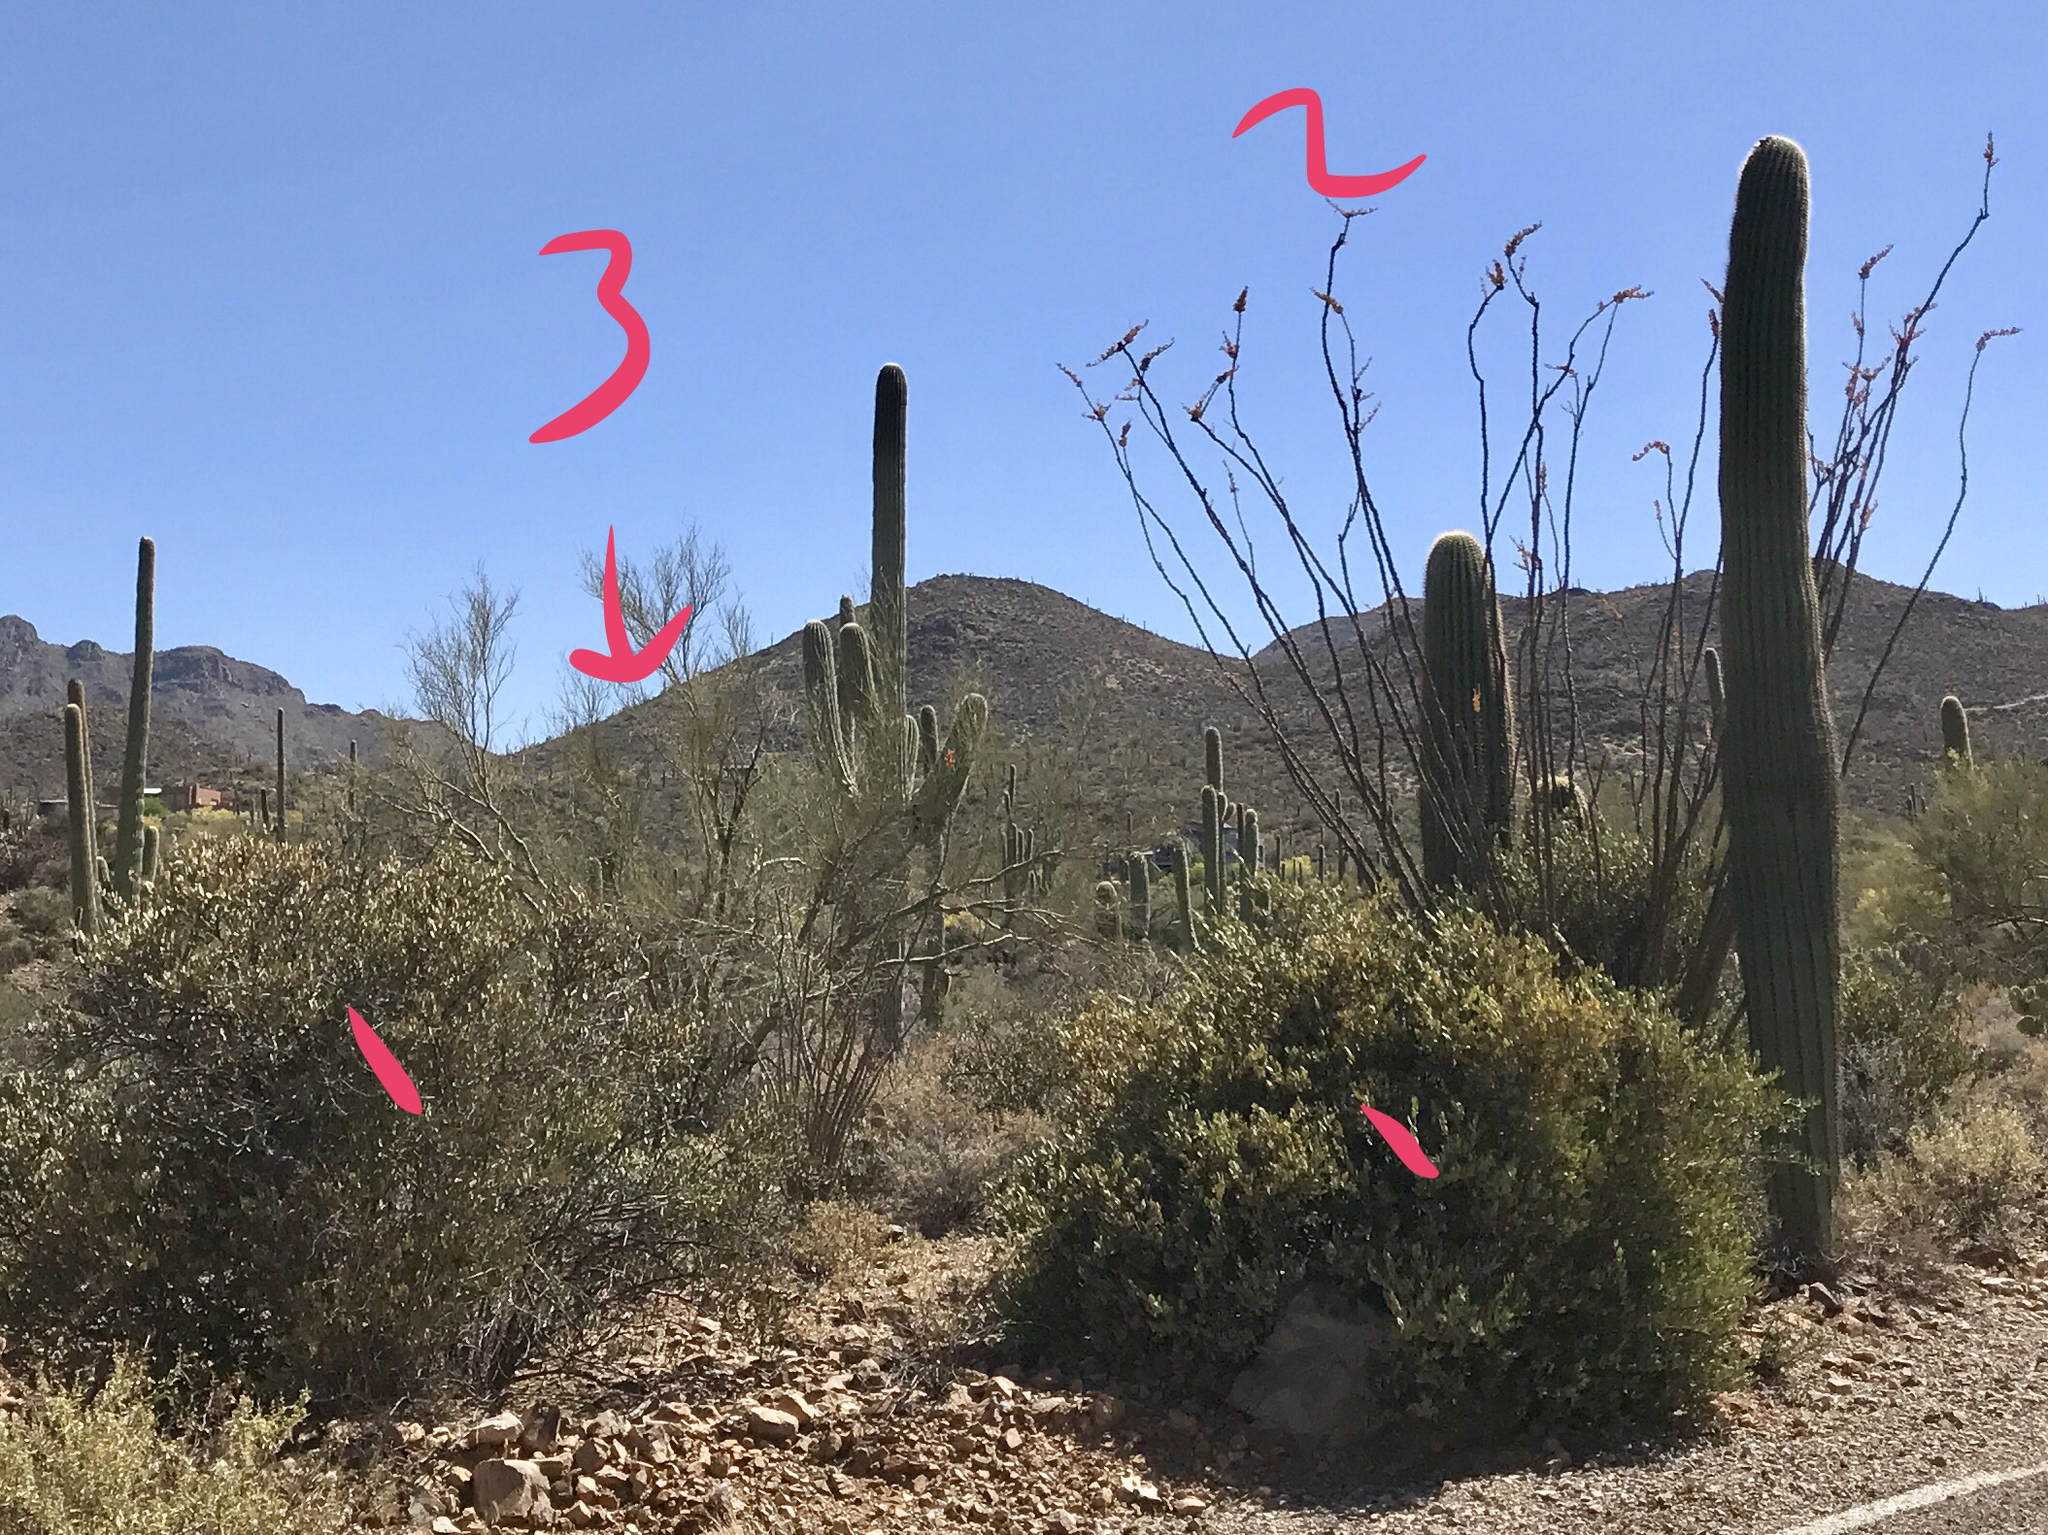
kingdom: Plantae
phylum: Tracheophyta
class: Magnoliopsida
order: Caryophyllales
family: Simmondsiaceae
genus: Simmondsia
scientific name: Simmondsia chinensis
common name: Jojoba
